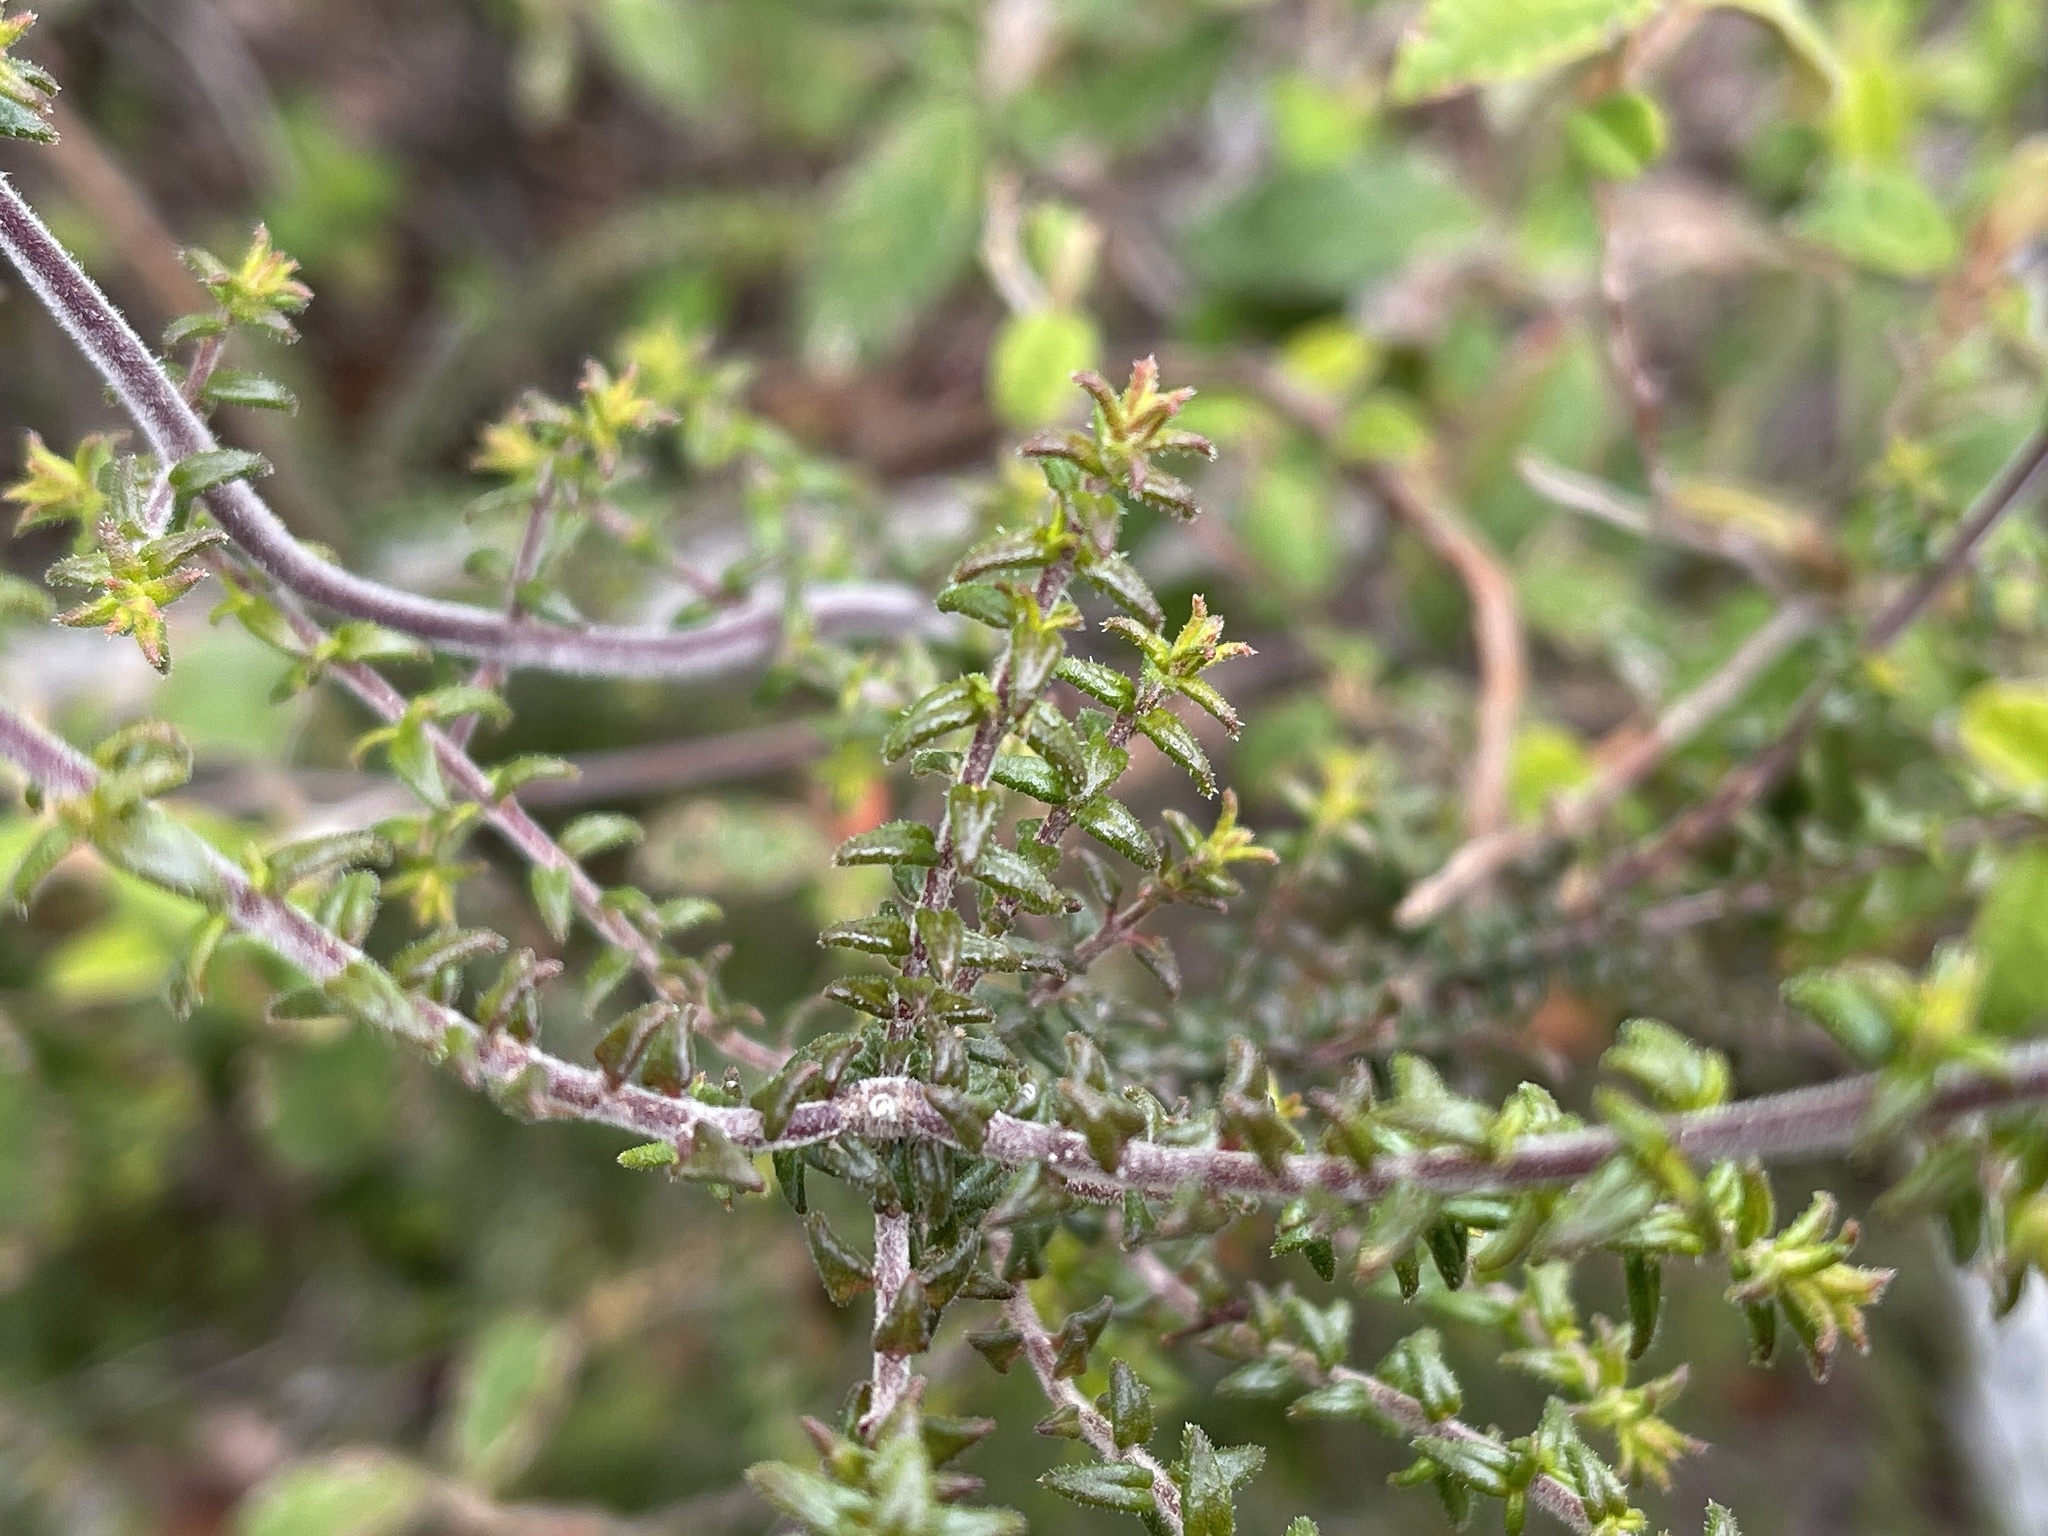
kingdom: Plantae
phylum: Tracheophyta
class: Magnoliopsida
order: Fabales
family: Fabaceae
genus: Pultenaea
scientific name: Pultenaea gunnii
